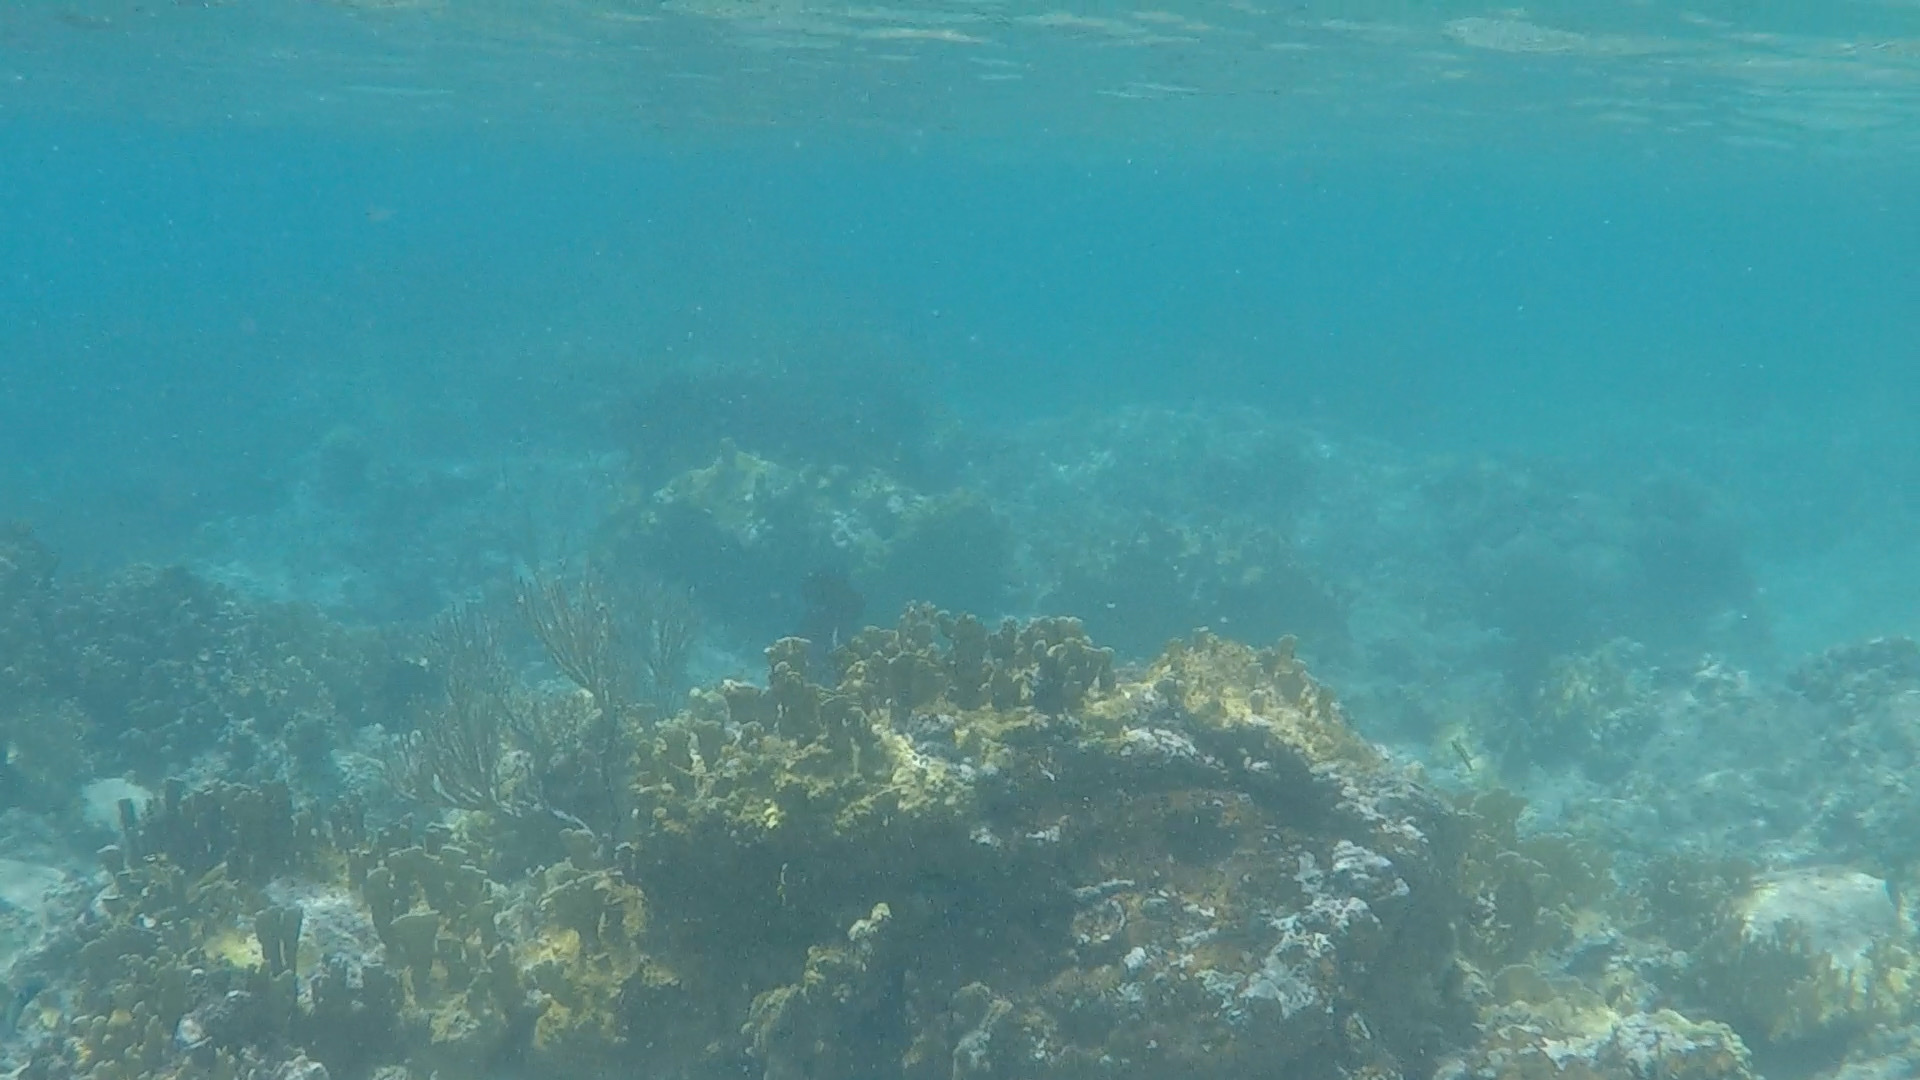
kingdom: Animalia
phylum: Cnidaria
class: Hydrozoa
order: Anthoathecata
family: Milleporidae
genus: Millepora
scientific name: Millepora complanata
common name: Bladed fire coral
